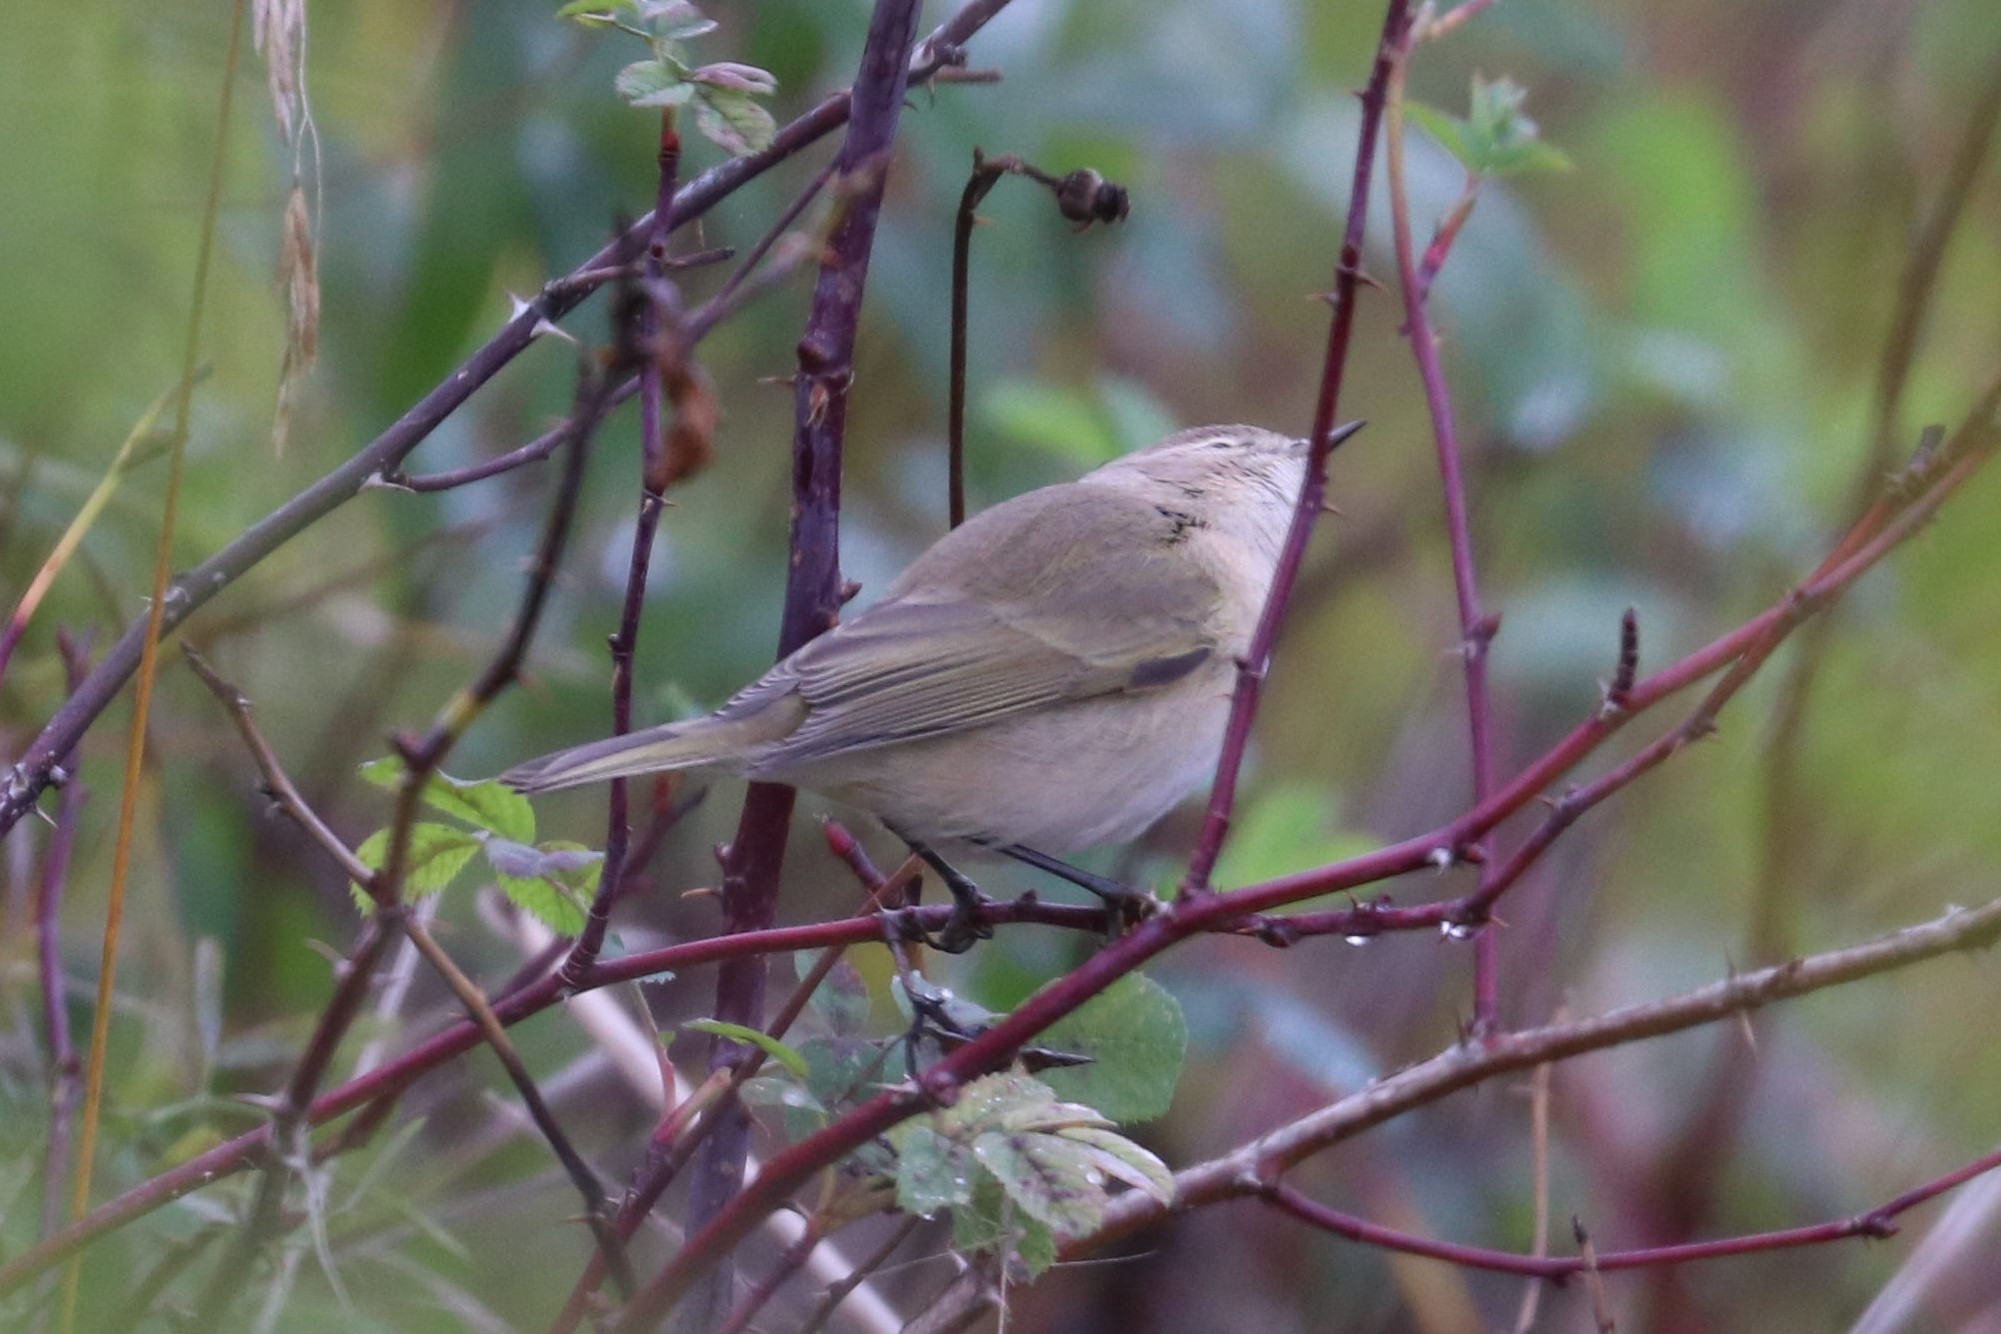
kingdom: Animalia
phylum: Chordata
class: Aves
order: Passeriformes
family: Phylloscopidae
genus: Phylloscopus
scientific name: Phylloscopus collybita
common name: Common chiffchaff
